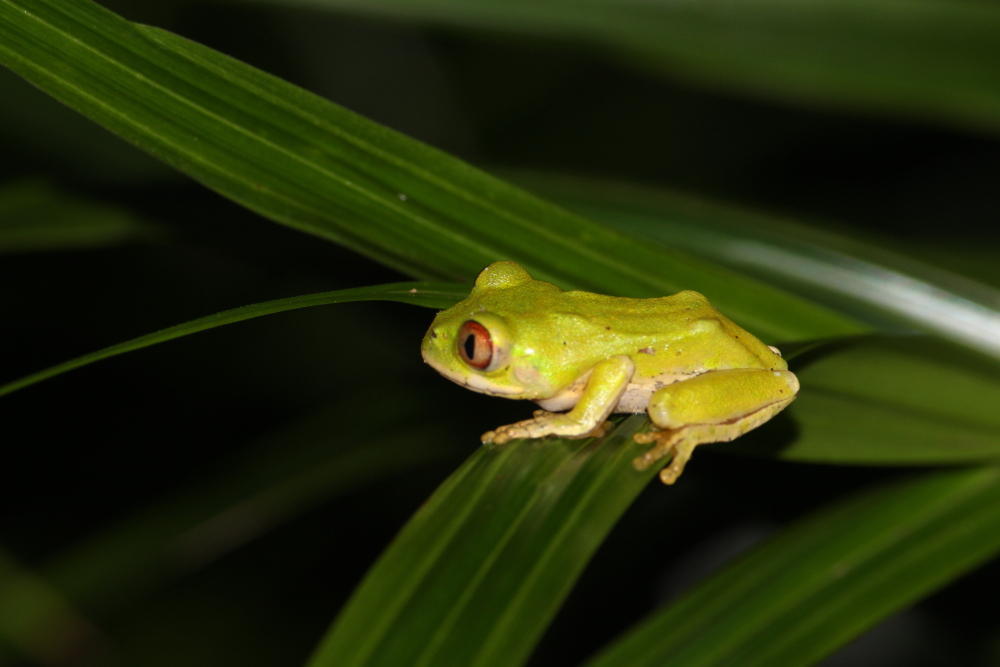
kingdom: Animalia
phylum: Chordata
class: Amphibia
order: Anura
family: Arthroleptidae
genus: Leptopelis
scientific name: Leptopelis natalensis
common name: Natal tree frog
